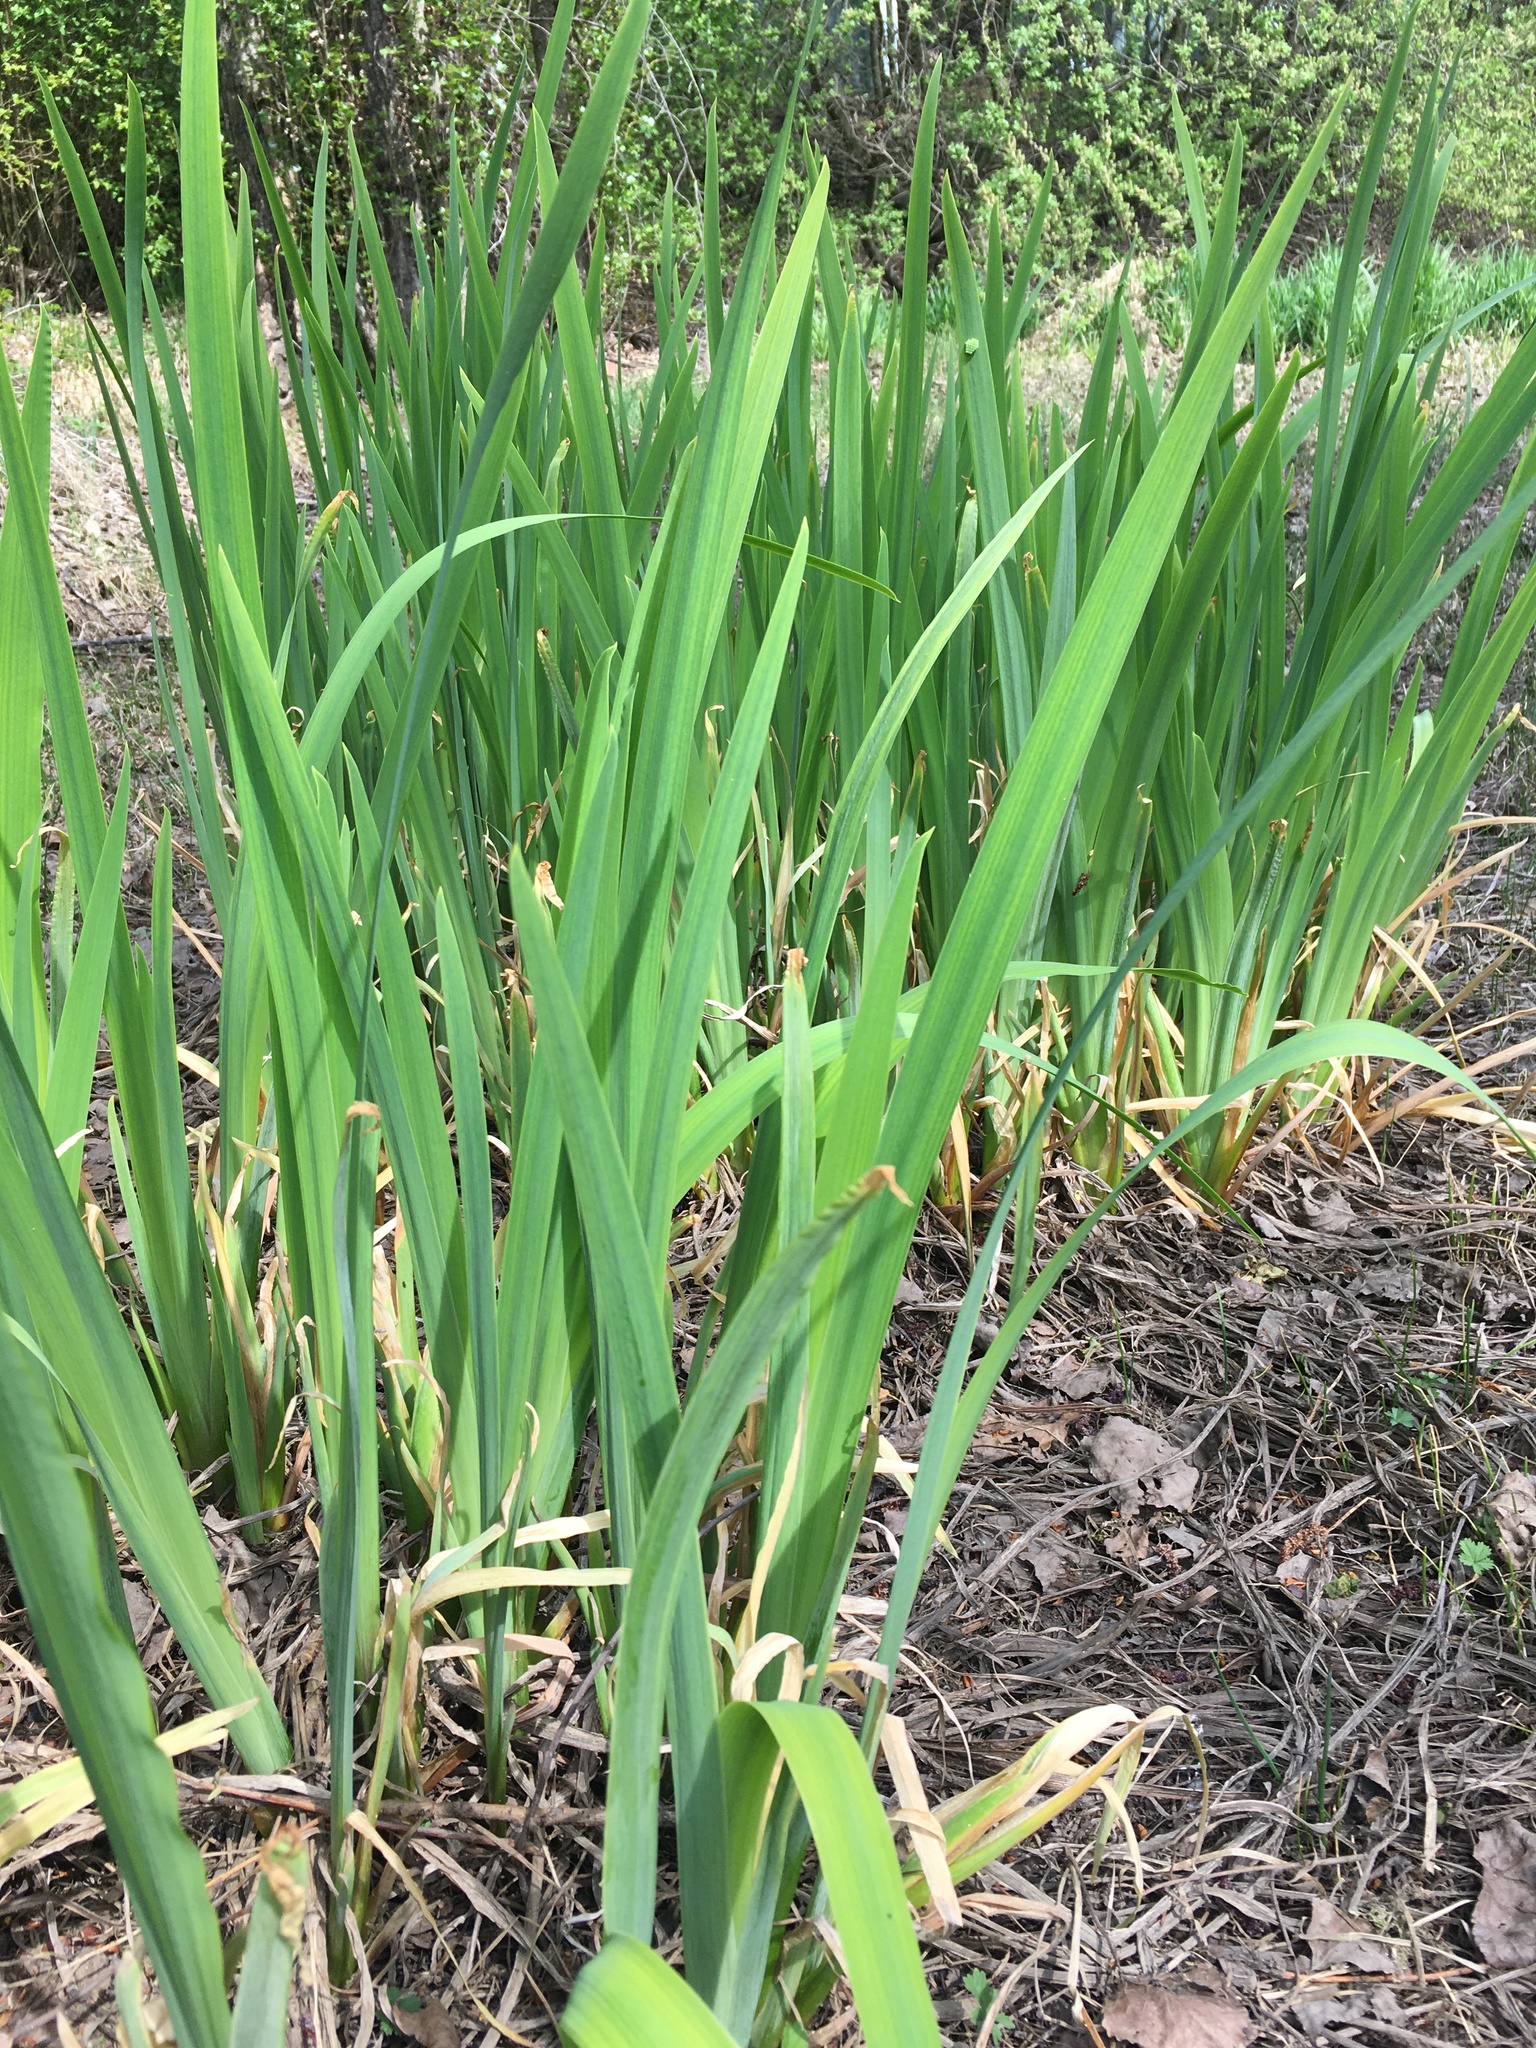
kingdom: Plantae
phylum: Tracheophyta
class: Liliopsida
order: Asparagales
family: Iridaceae
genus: Iris
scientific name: Iris pseudacorus
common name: Yellow flag
